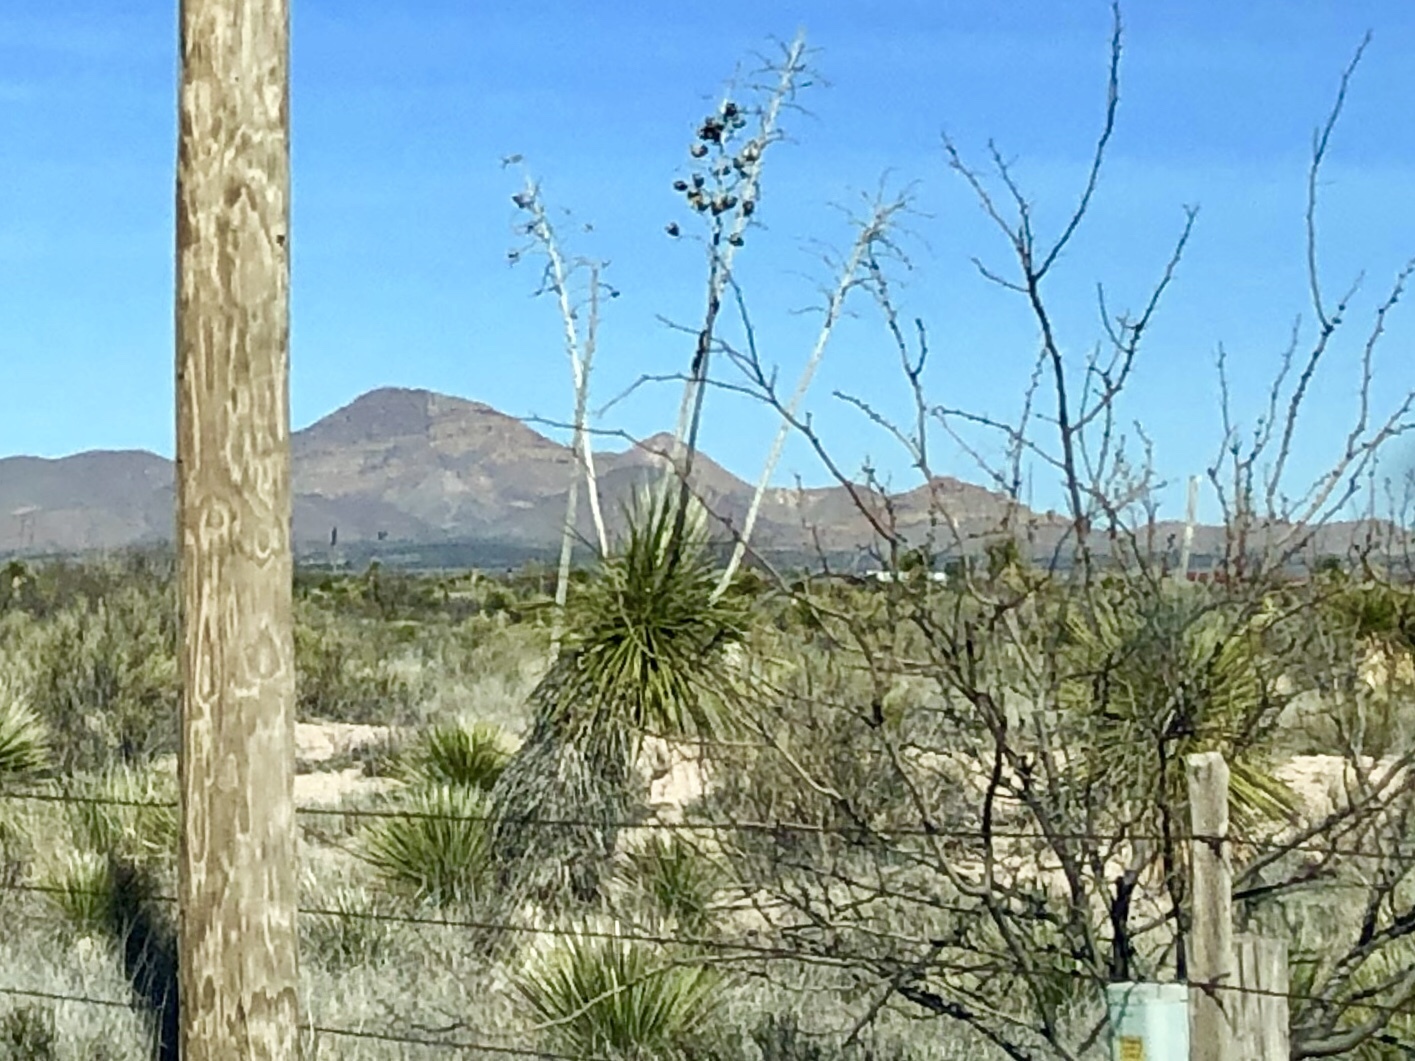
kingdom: Plantae
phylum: Tracheophyta
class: Liliopsida
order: Asparagales
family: Asparagaceae
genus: Yucca
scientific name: Yucca elata
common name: Palmella
